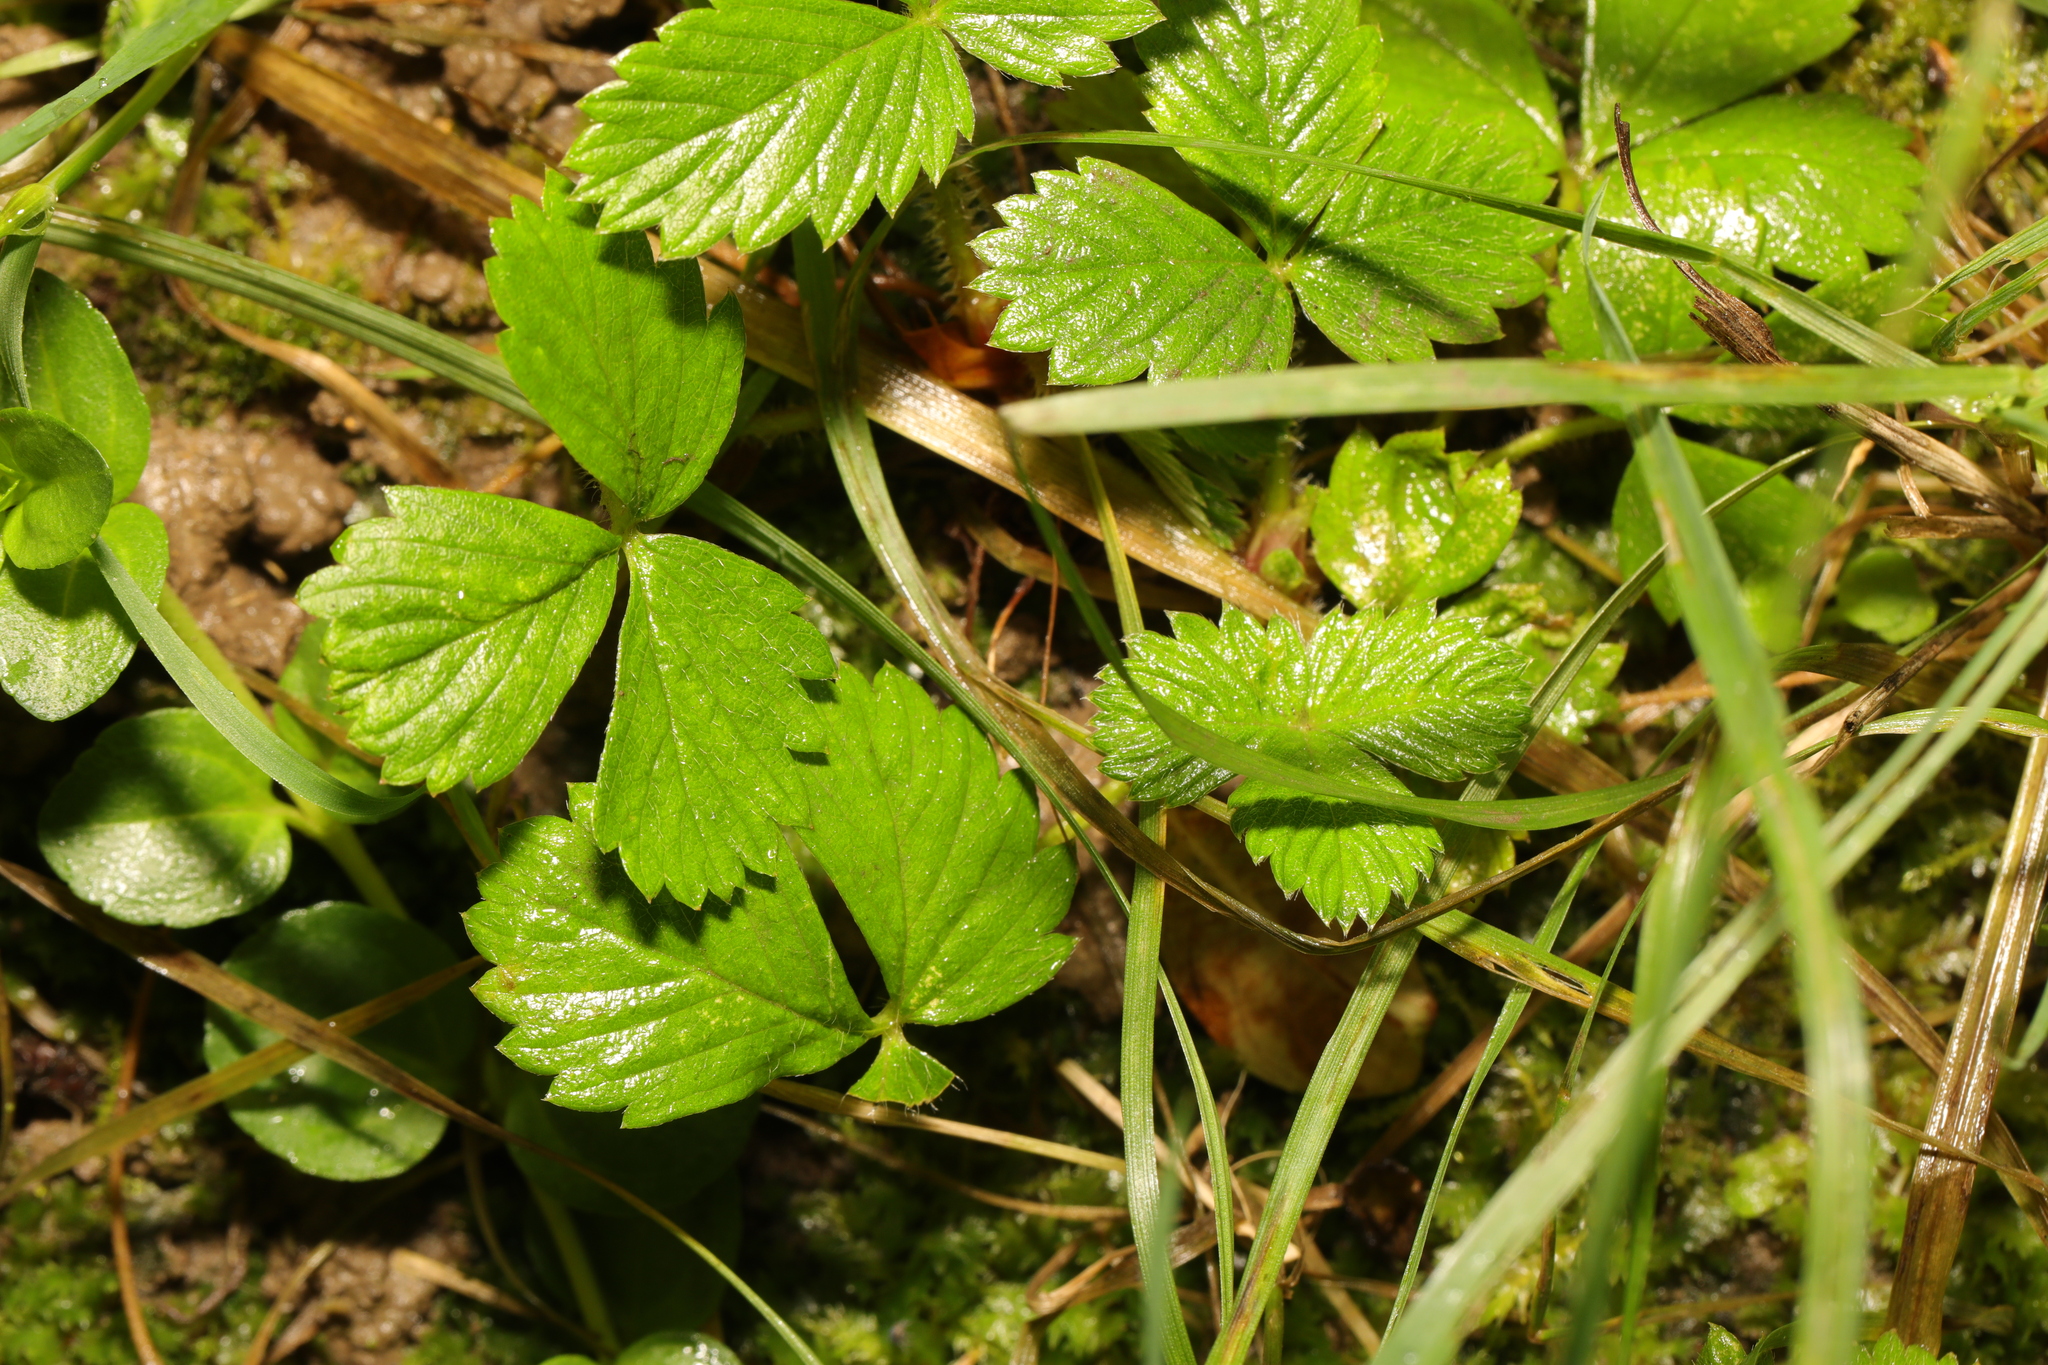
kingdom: Plantae
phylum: Tracheophyta
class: Magnoliopsida
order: Rosales
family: Rosaceae
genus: Fragaria
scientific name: Fragaria vesca
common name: Wild strawberry
